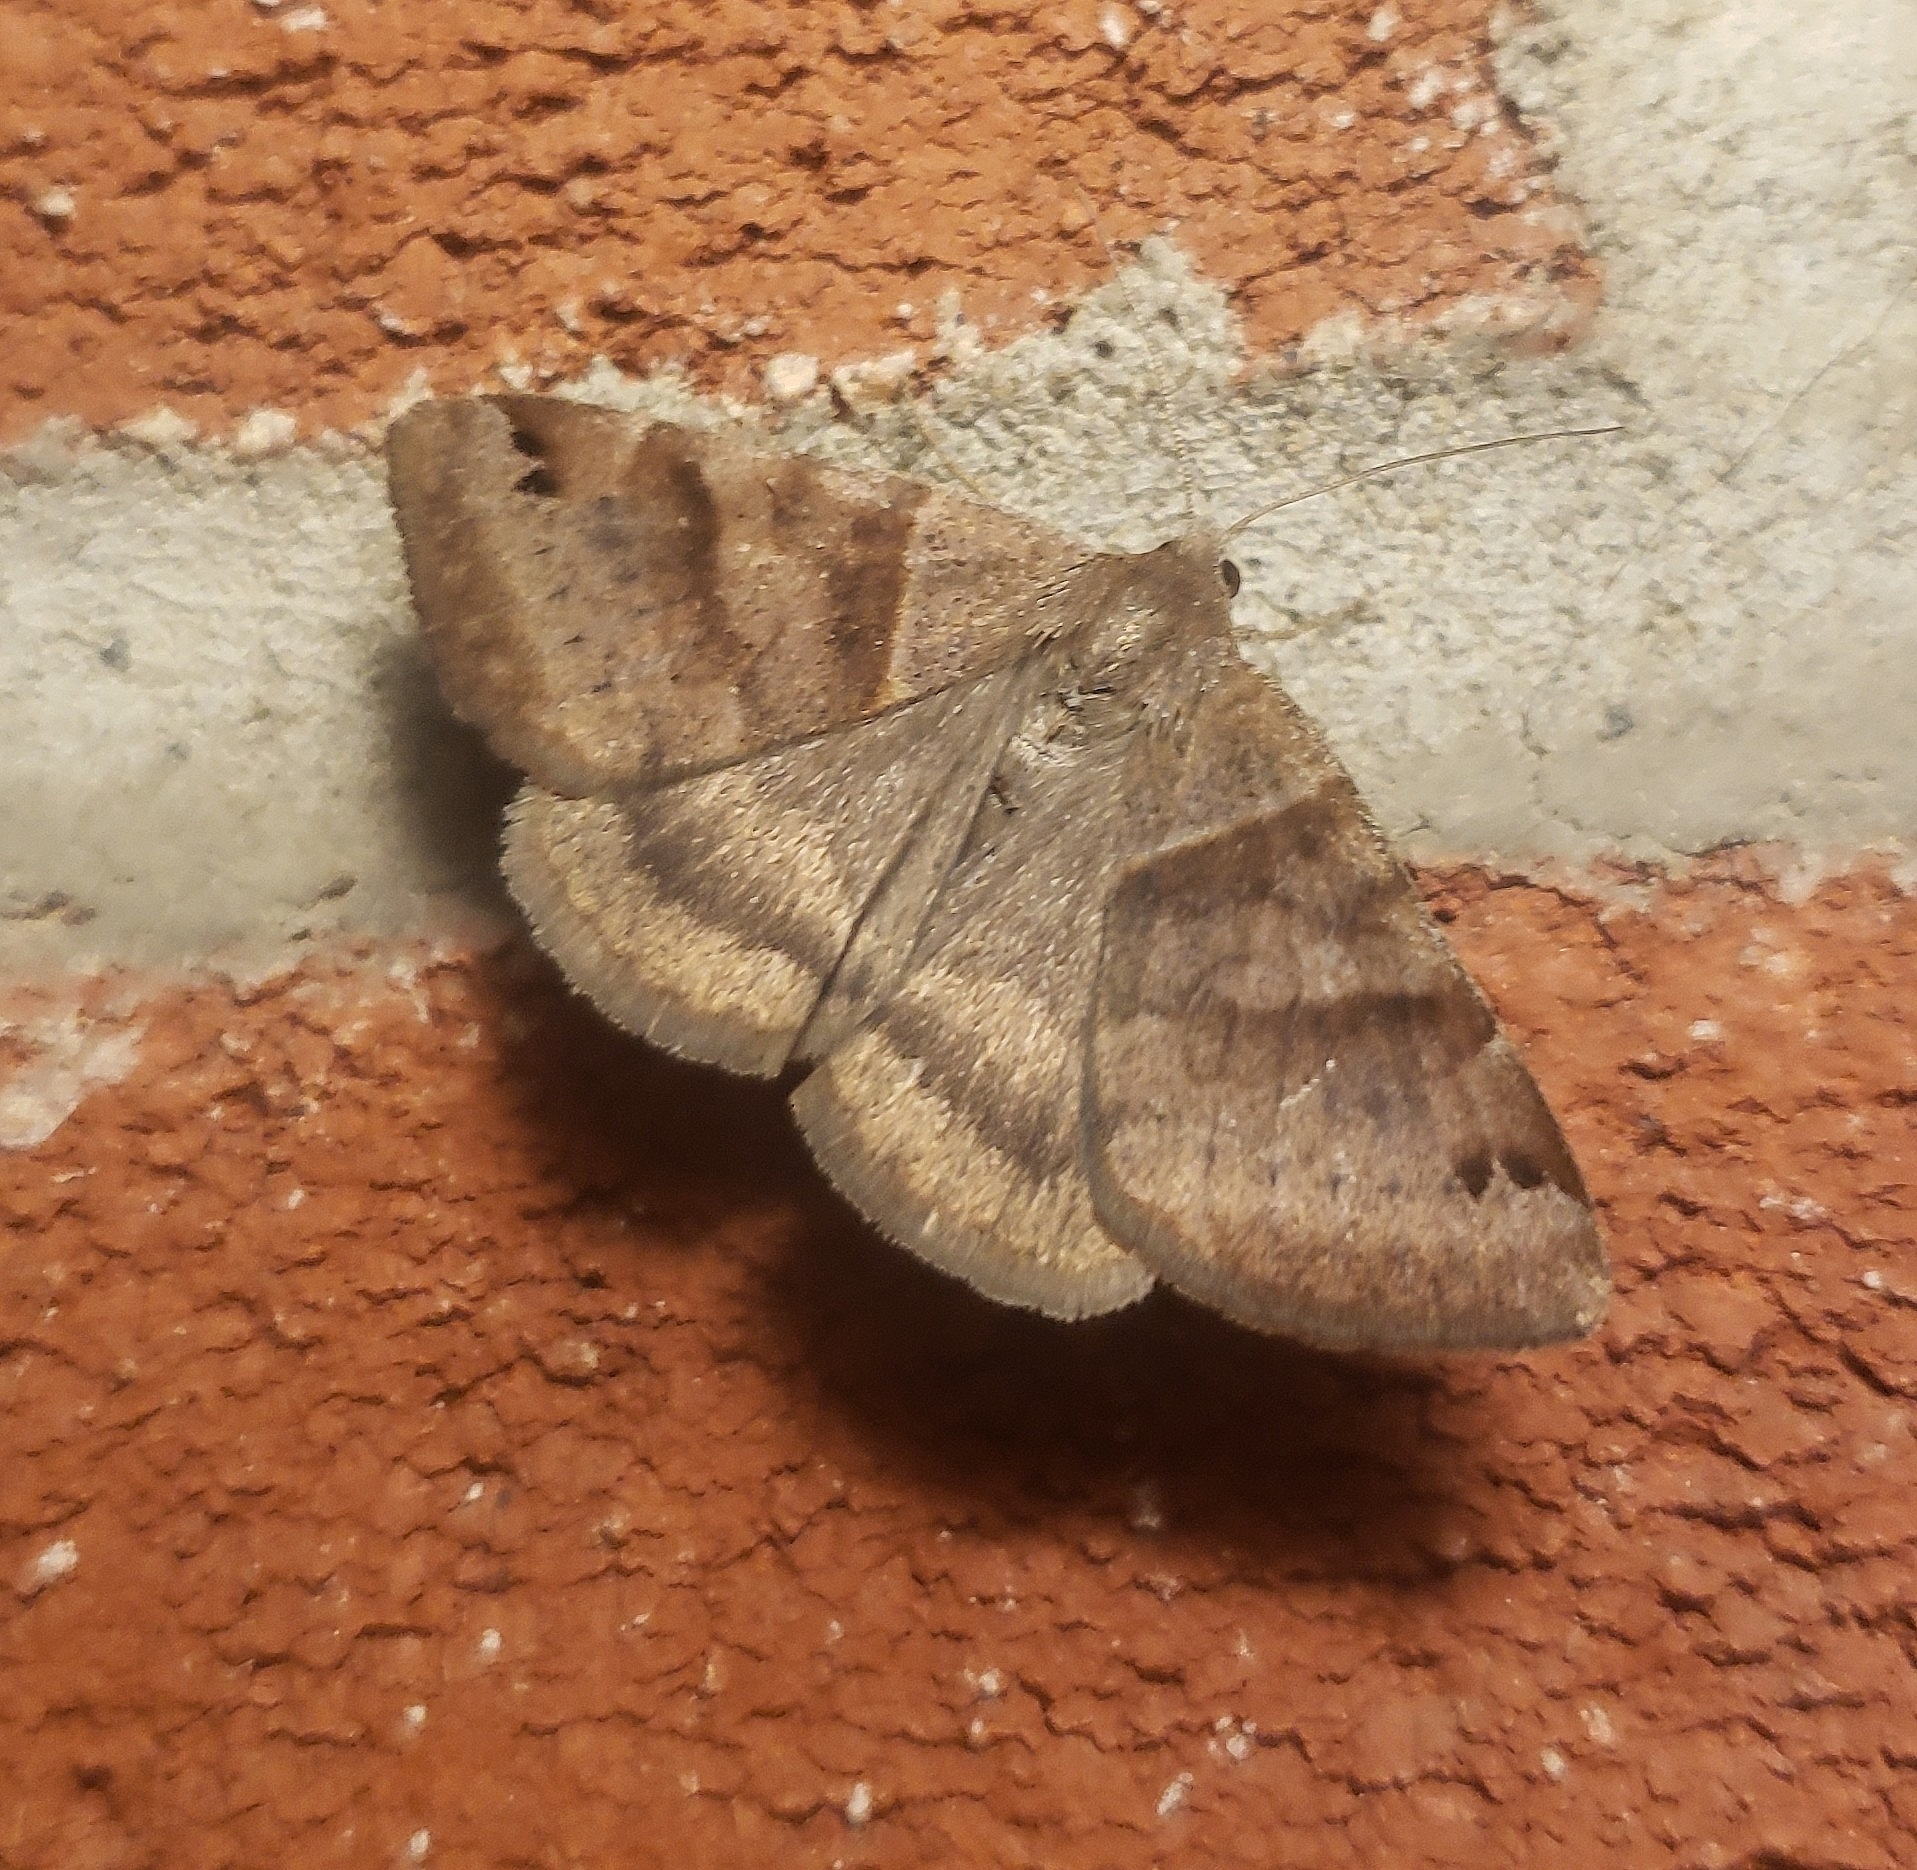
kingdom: Animalia
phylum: Arthropoda
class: Insecta
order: Lepidoptera
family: Erebidae
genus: Caenurgina
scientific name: Caenurgina crassiuscula
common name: Double-barred
